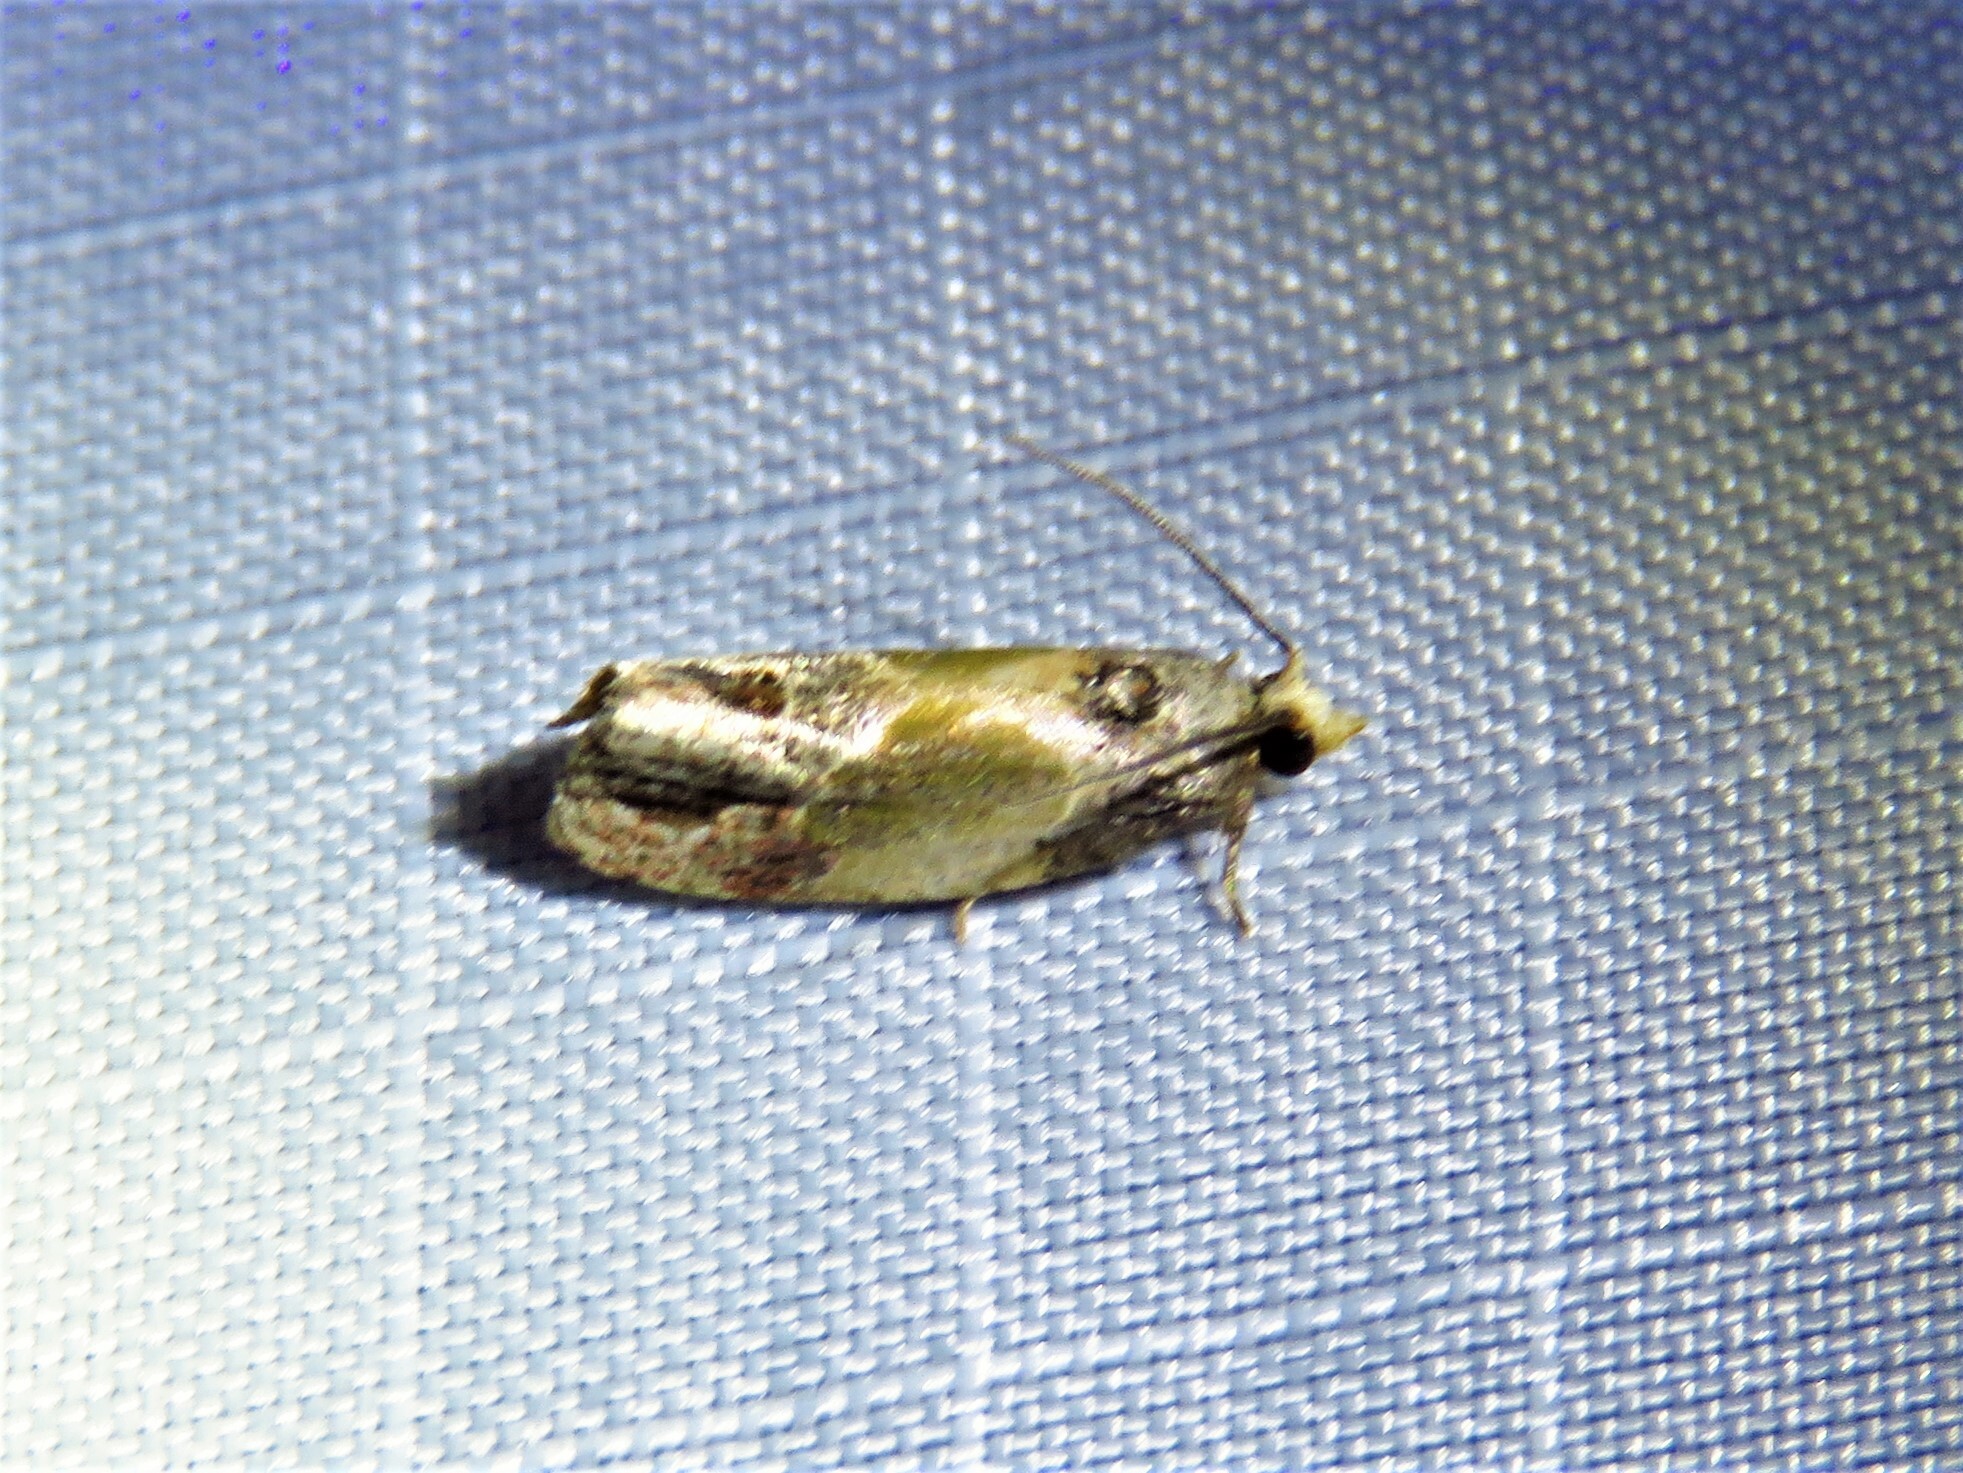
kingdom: Animalia
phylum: Arthropoda
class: Insecta
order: Lepidoptera
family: Tortricidae
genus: Eumarozia
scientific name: Eumarozia malachitana
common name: Sculptured moth
